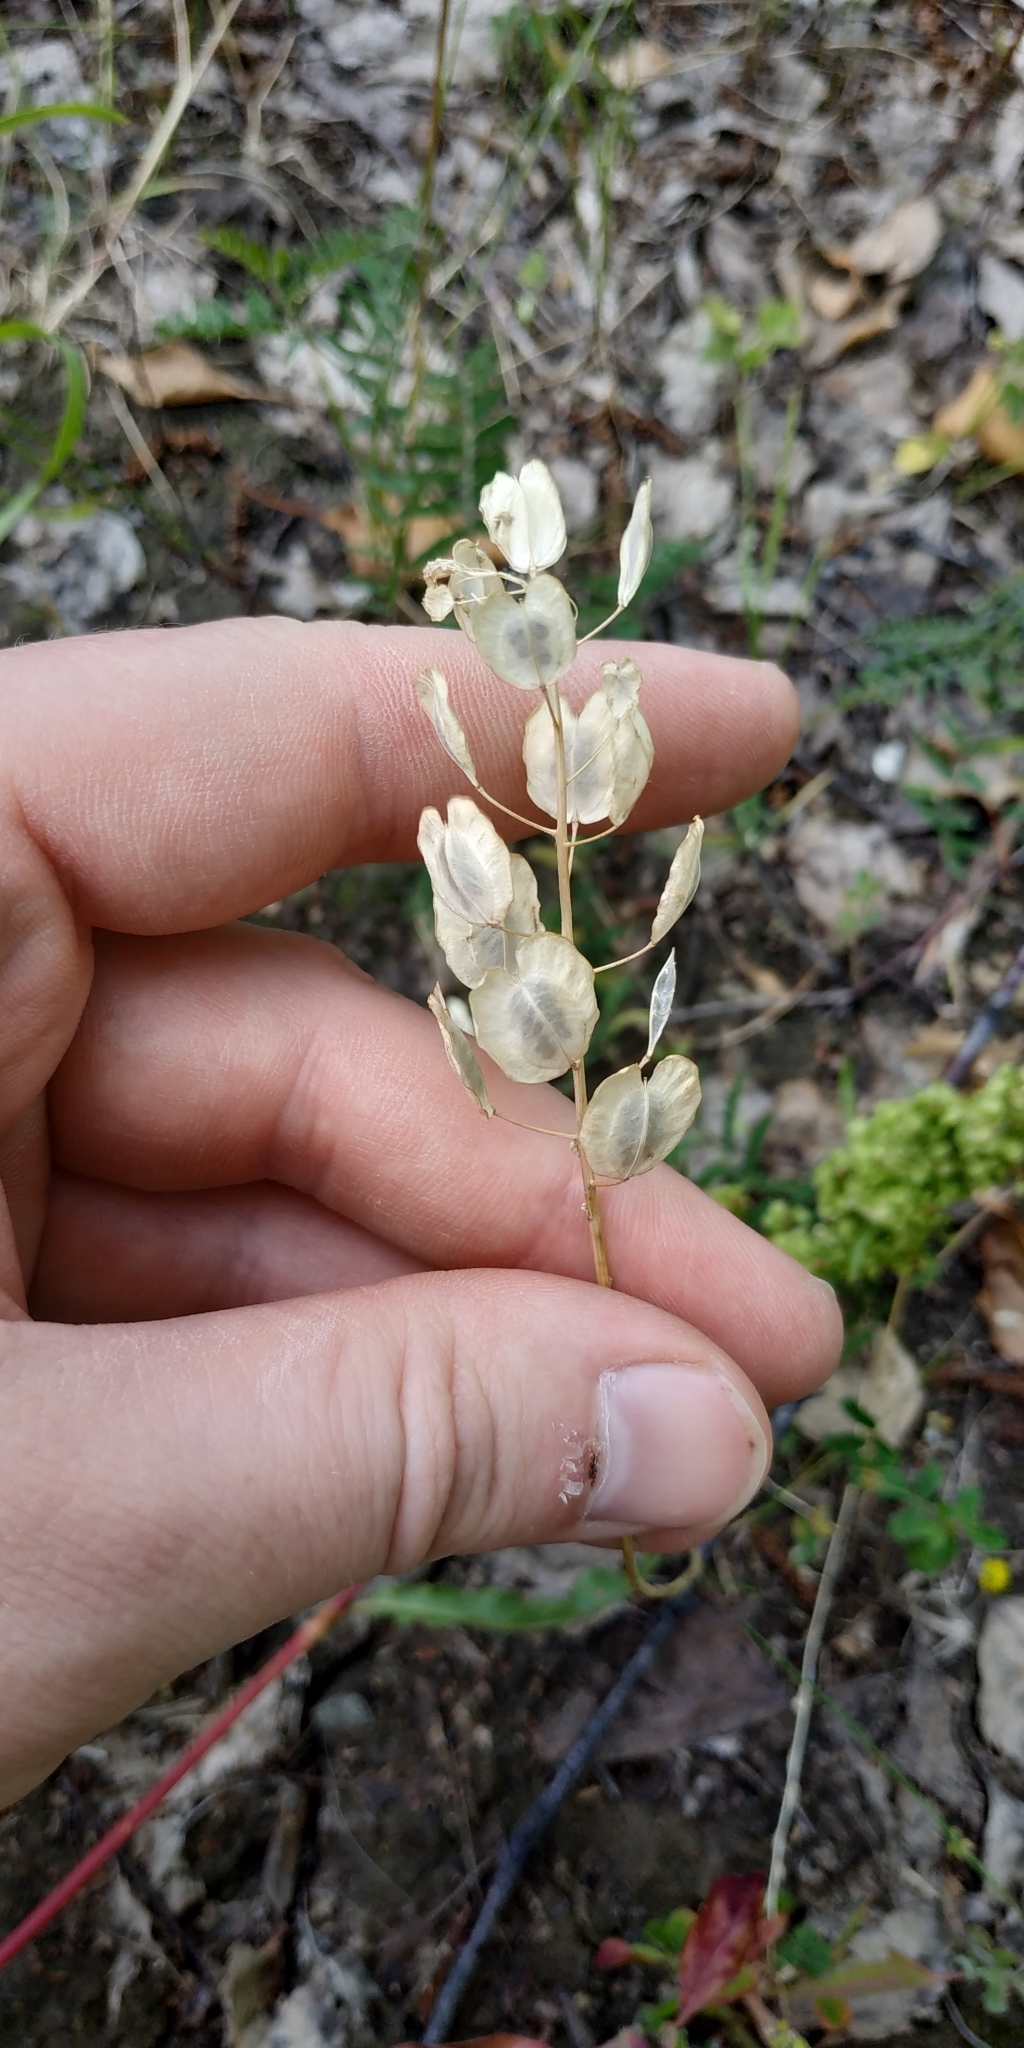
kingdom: Plantae
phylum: Tracheophyta
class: Magnoliopsida
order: Brassicales
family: Brassicaceae
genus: Thlaspi
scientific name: Thlaspi arvense
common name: Field pennycress
